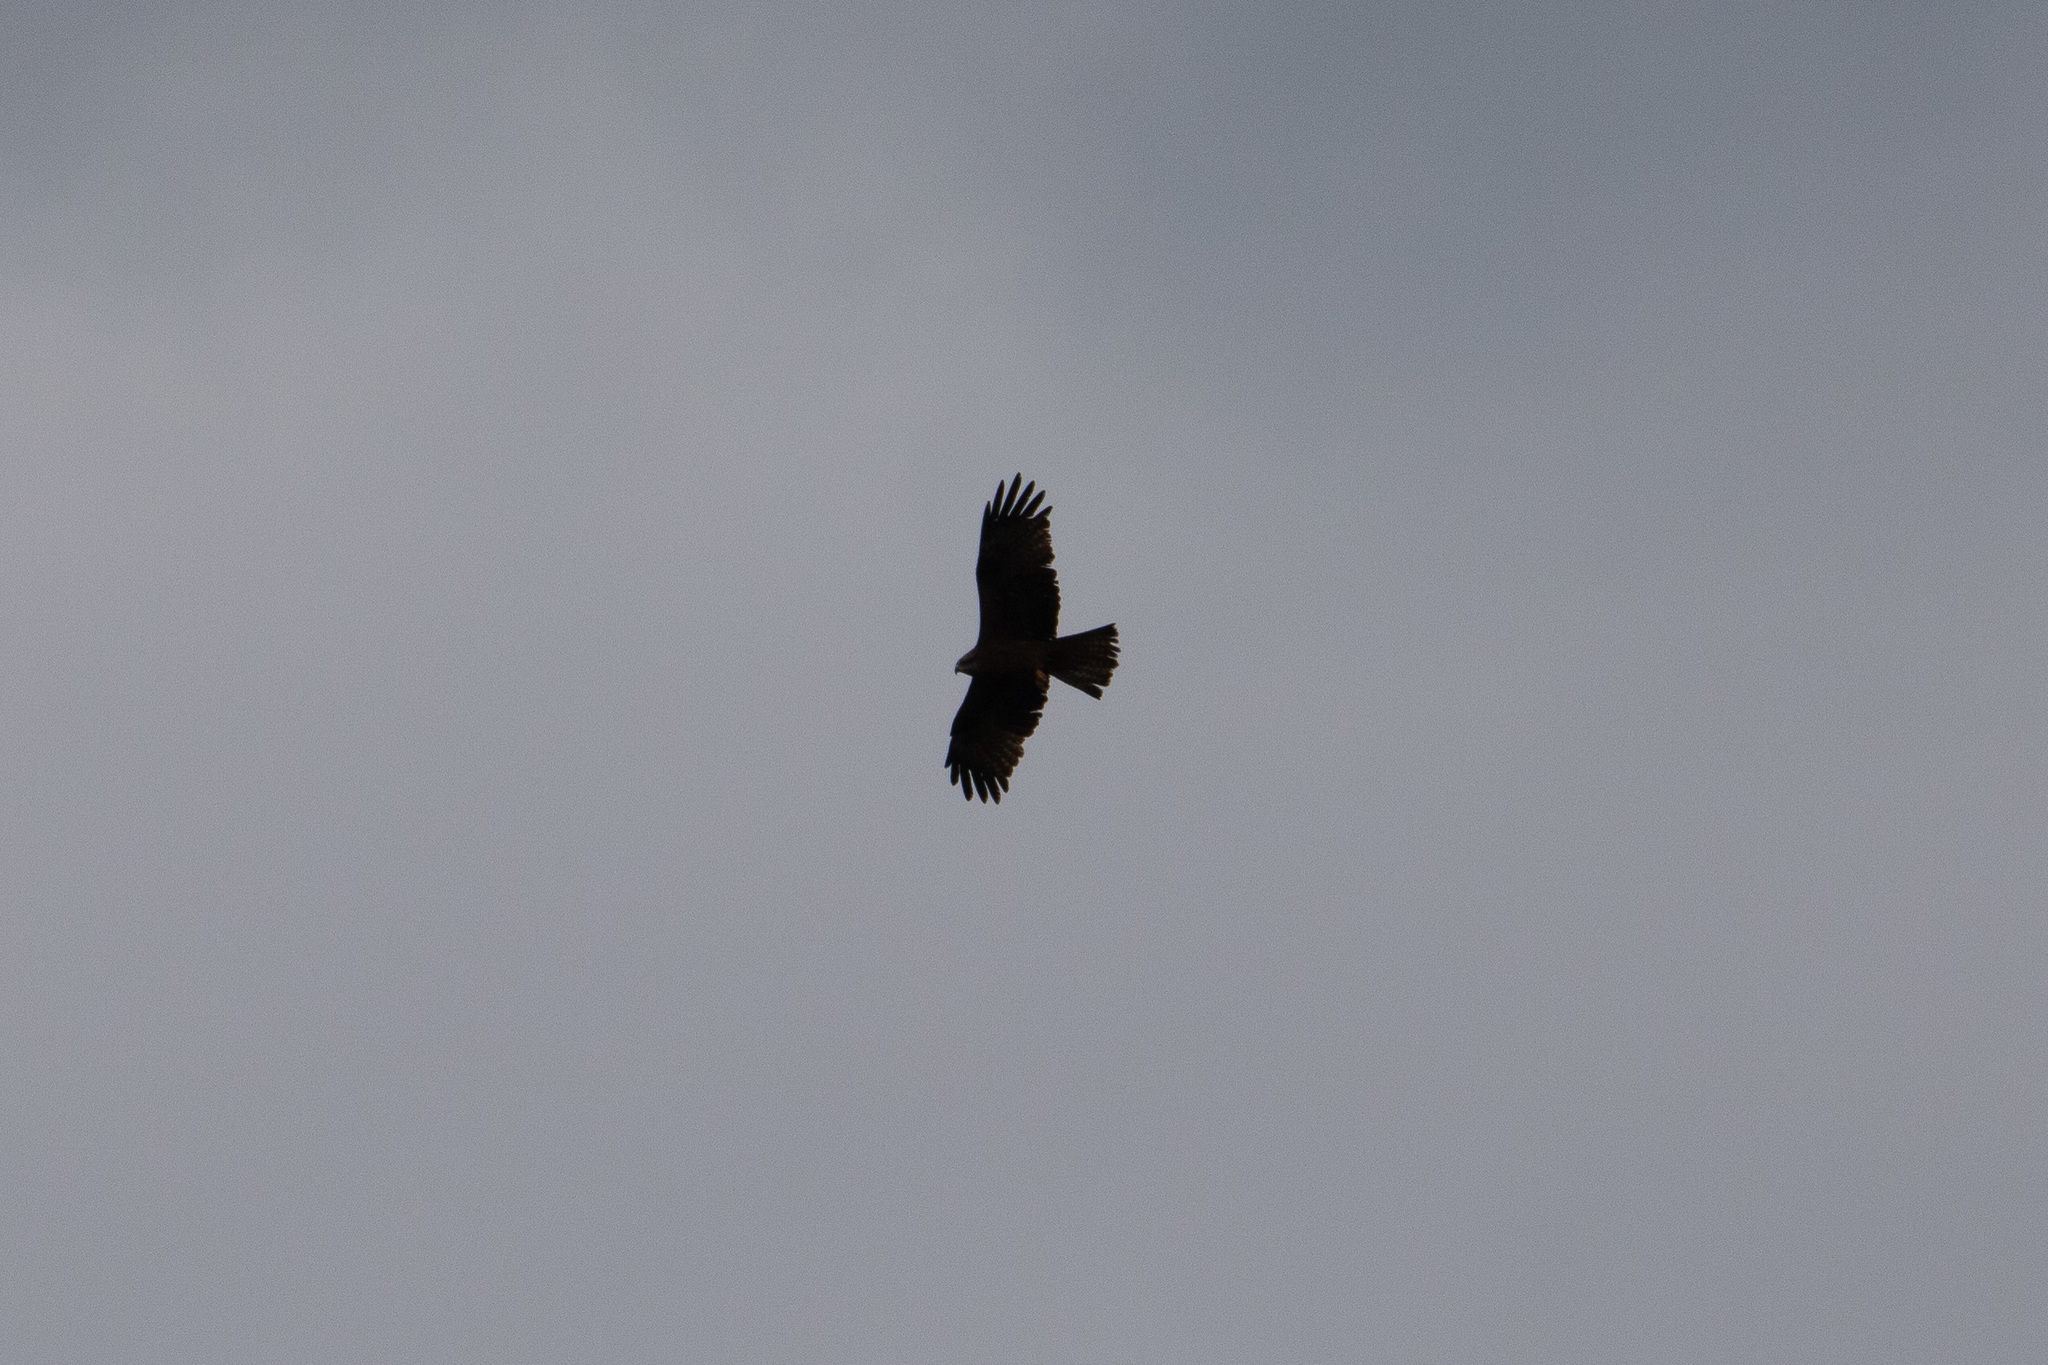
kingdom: Animalia
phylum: Chordata
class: Aves
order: Accipitriformes
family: Accipitridae
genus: Milvus
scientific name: Milvus migrans
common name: Black kite
